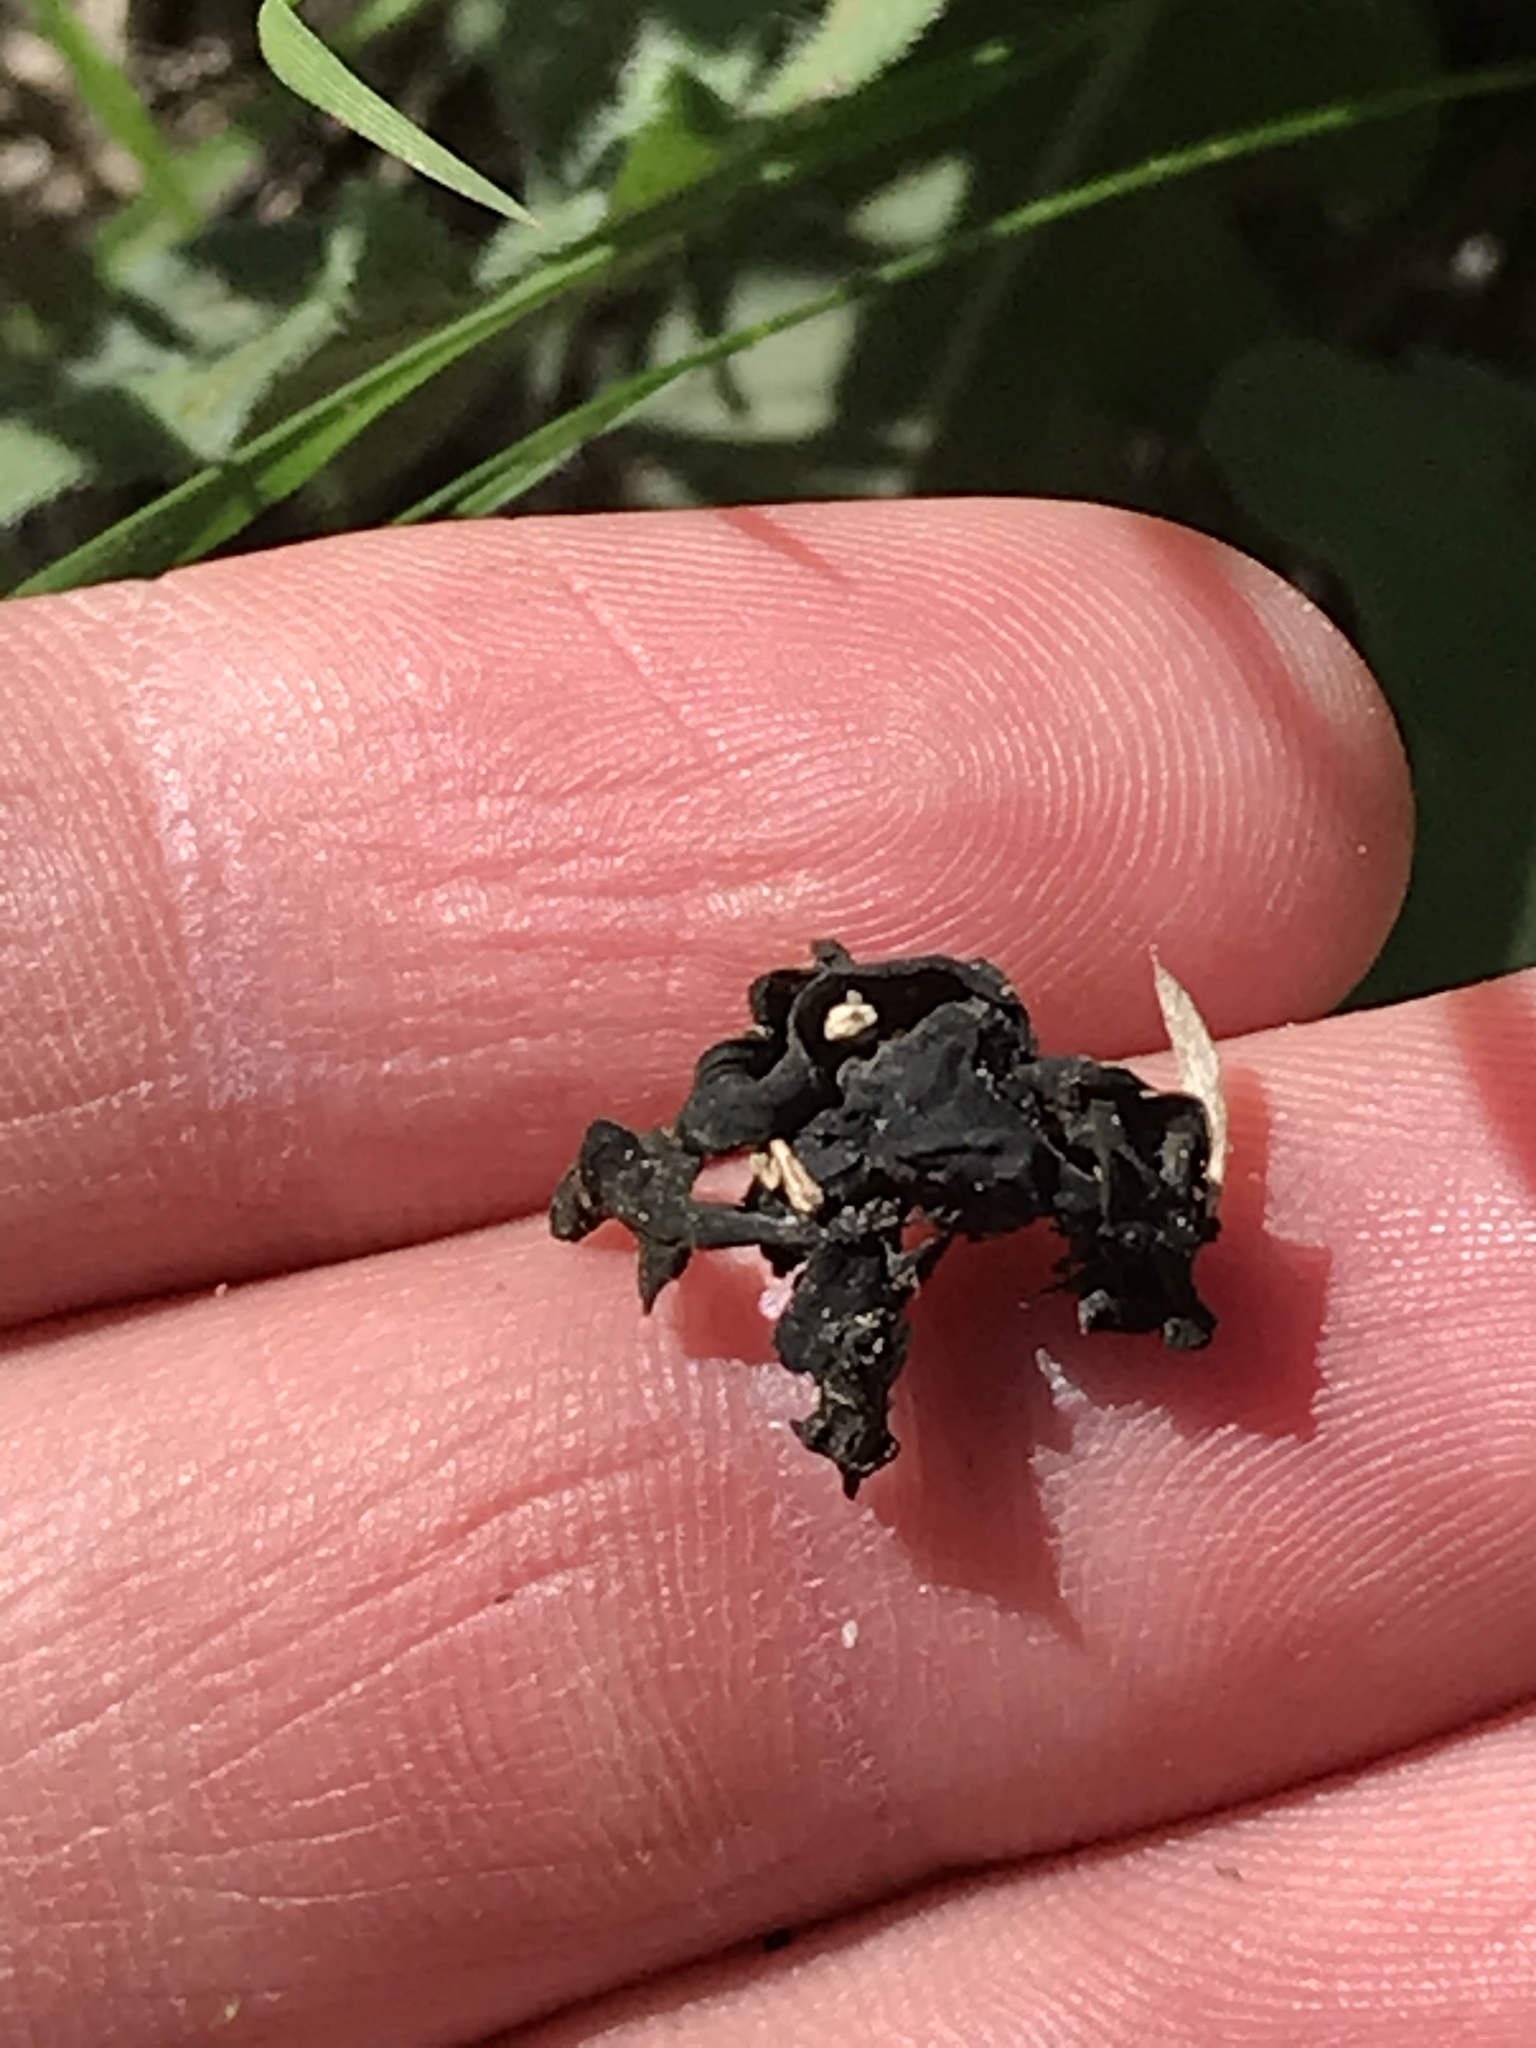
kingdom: Bacteria
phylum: Cyanobacteria
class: Cyanobacteriia
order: Cyanobacteriales
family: Nostocaceae
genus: Nostoc
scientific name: Nostoc commune
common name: Star jelly
